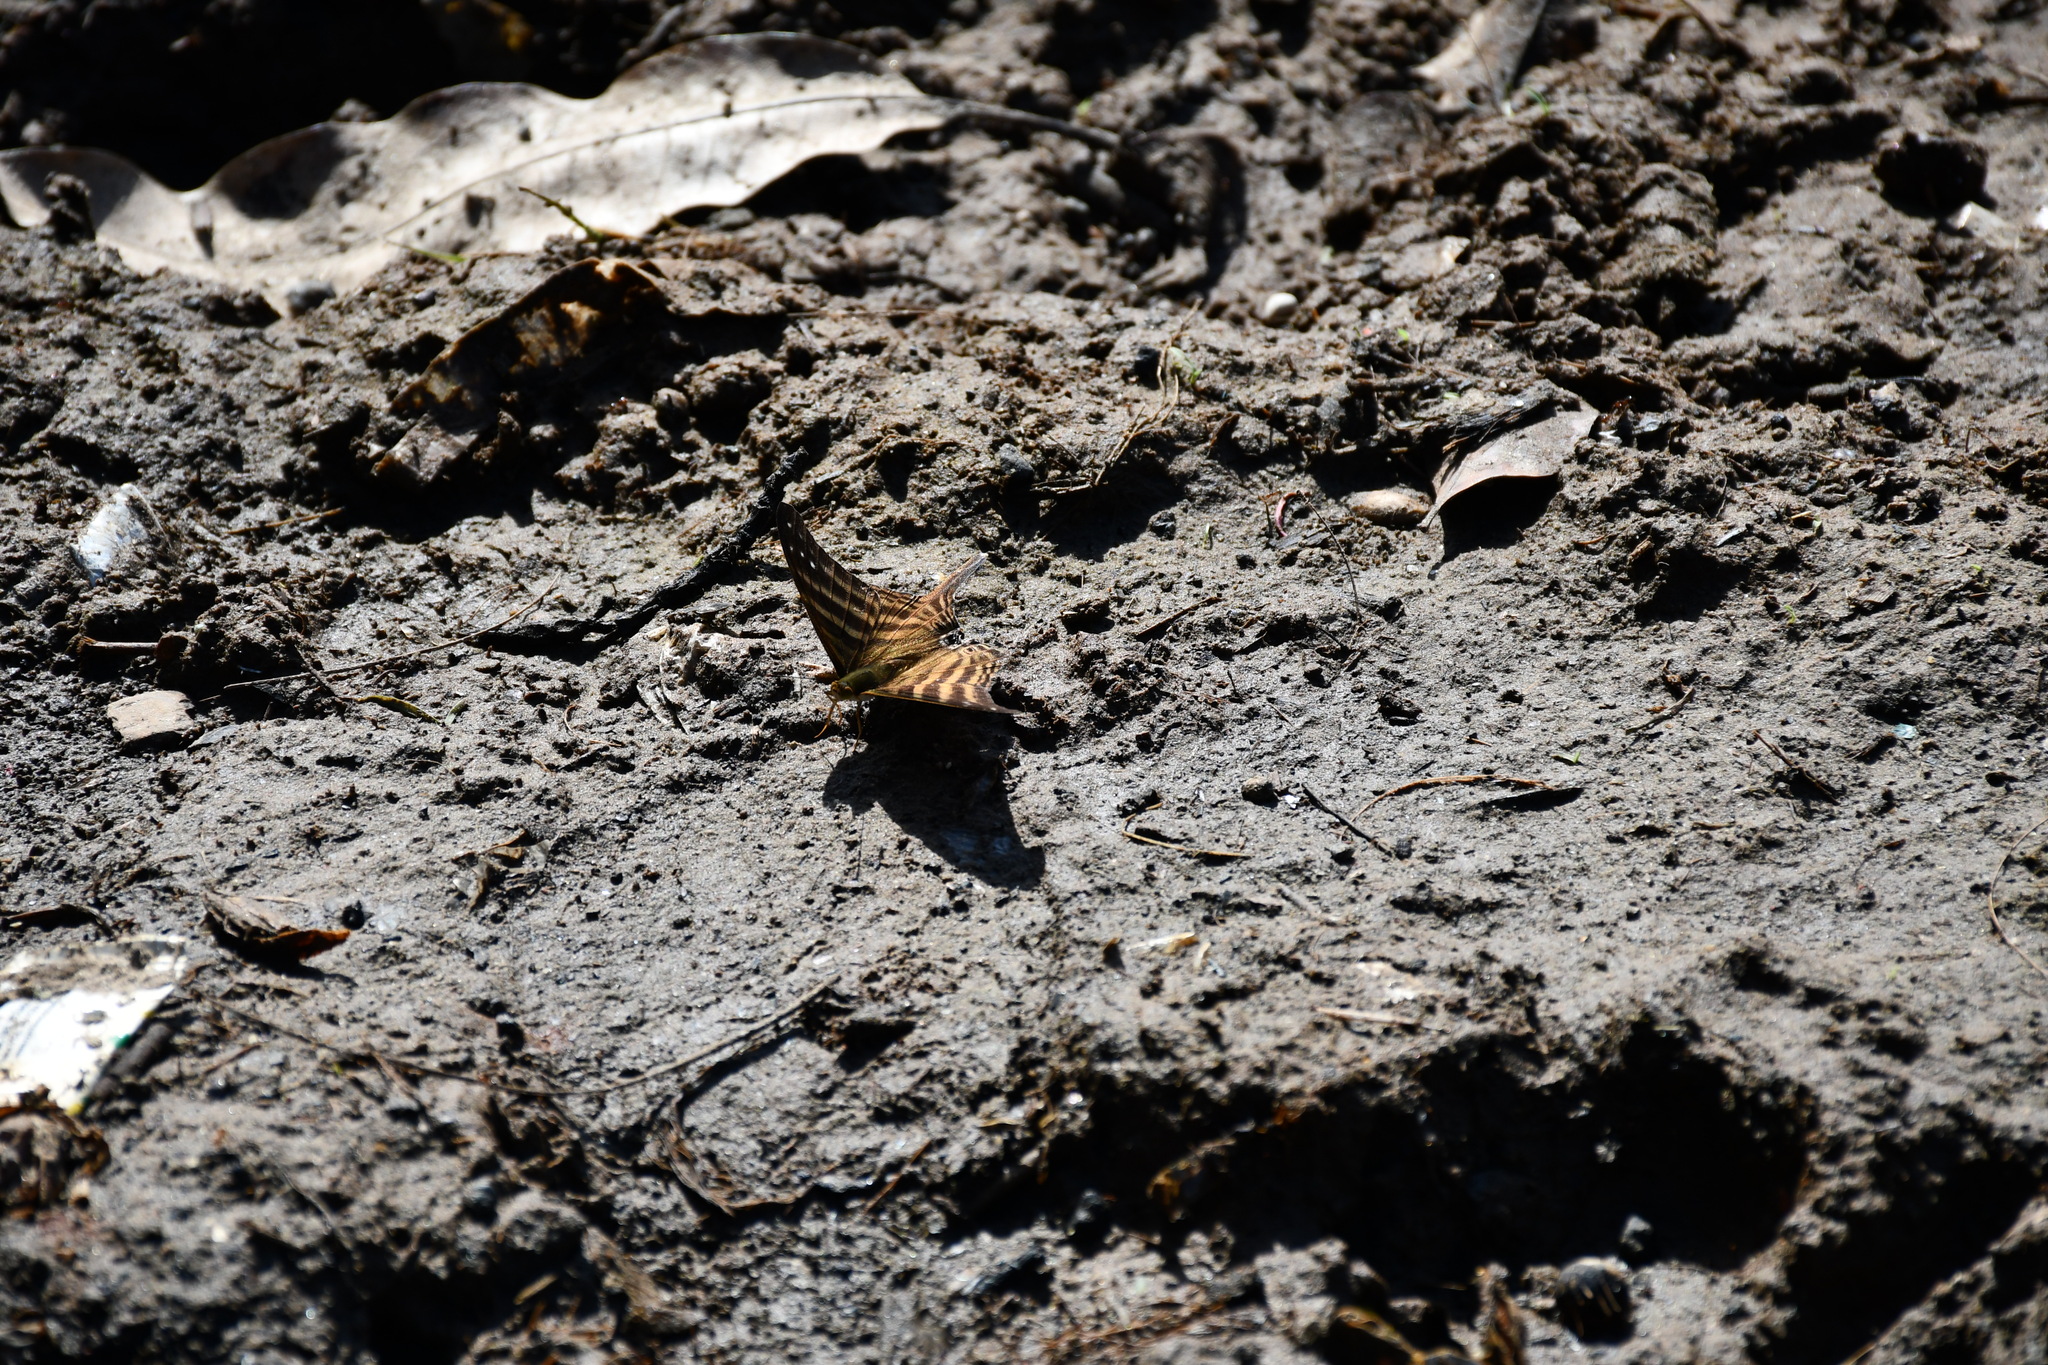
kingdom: Animalia
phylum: Arthropoda
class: Insecta
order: Lepidoptera
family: Nymphalidae
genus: Marpesia
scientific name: Marpesia chiron
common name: Many-banded daggerwing
